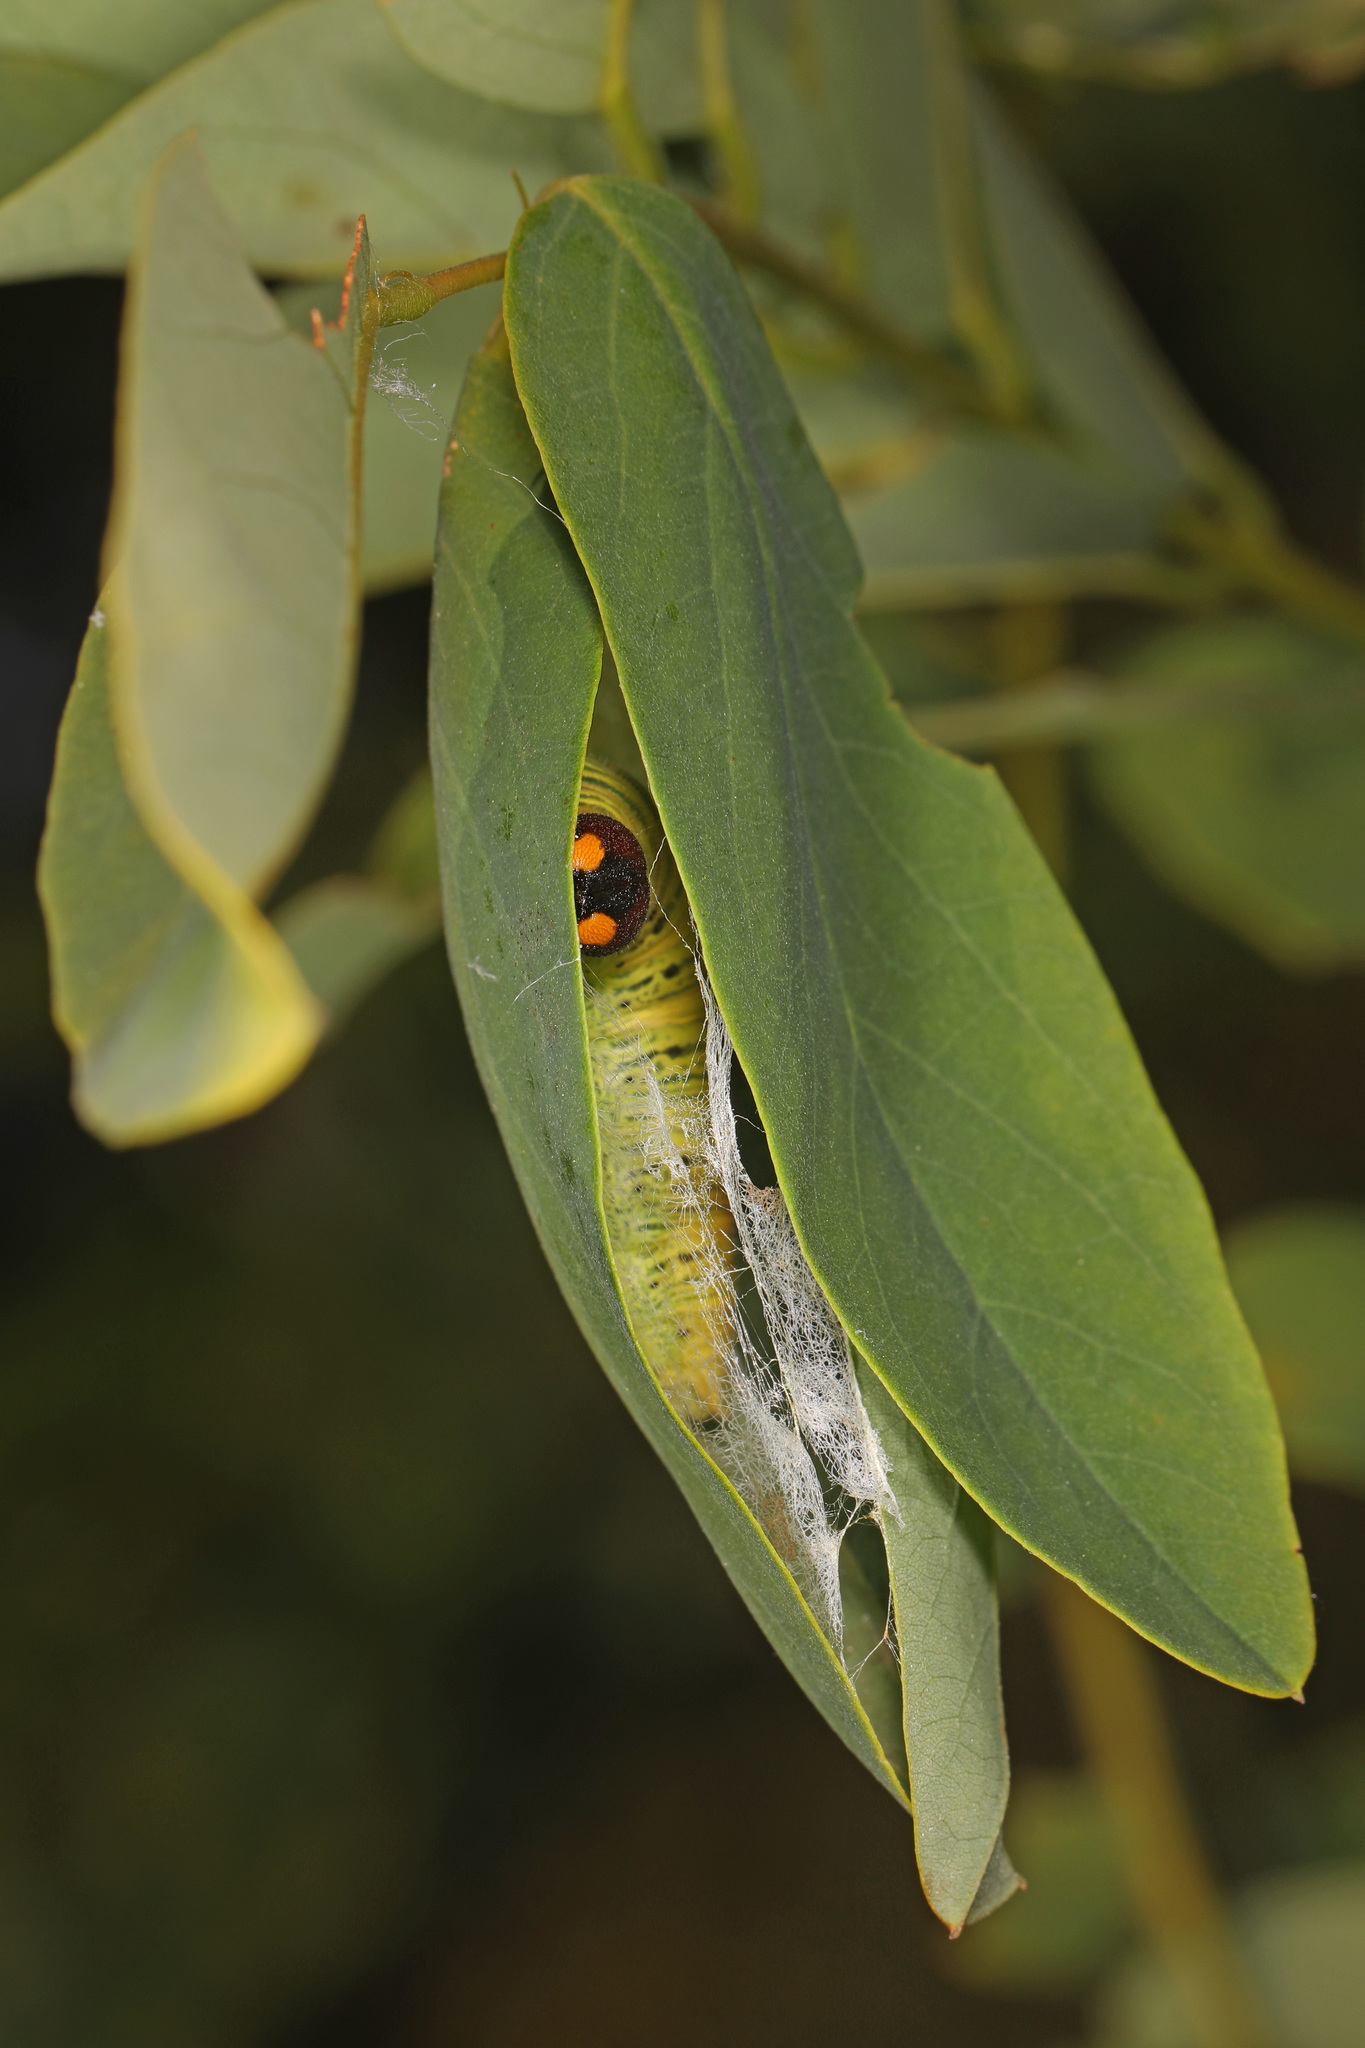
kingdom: Animalia
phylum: Arthropoda
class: Insecta
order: Lepidoptera
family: Hesperiidae
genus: Epargyreus
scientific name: Epargyreus clarus
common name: Silver-spotted skipper
